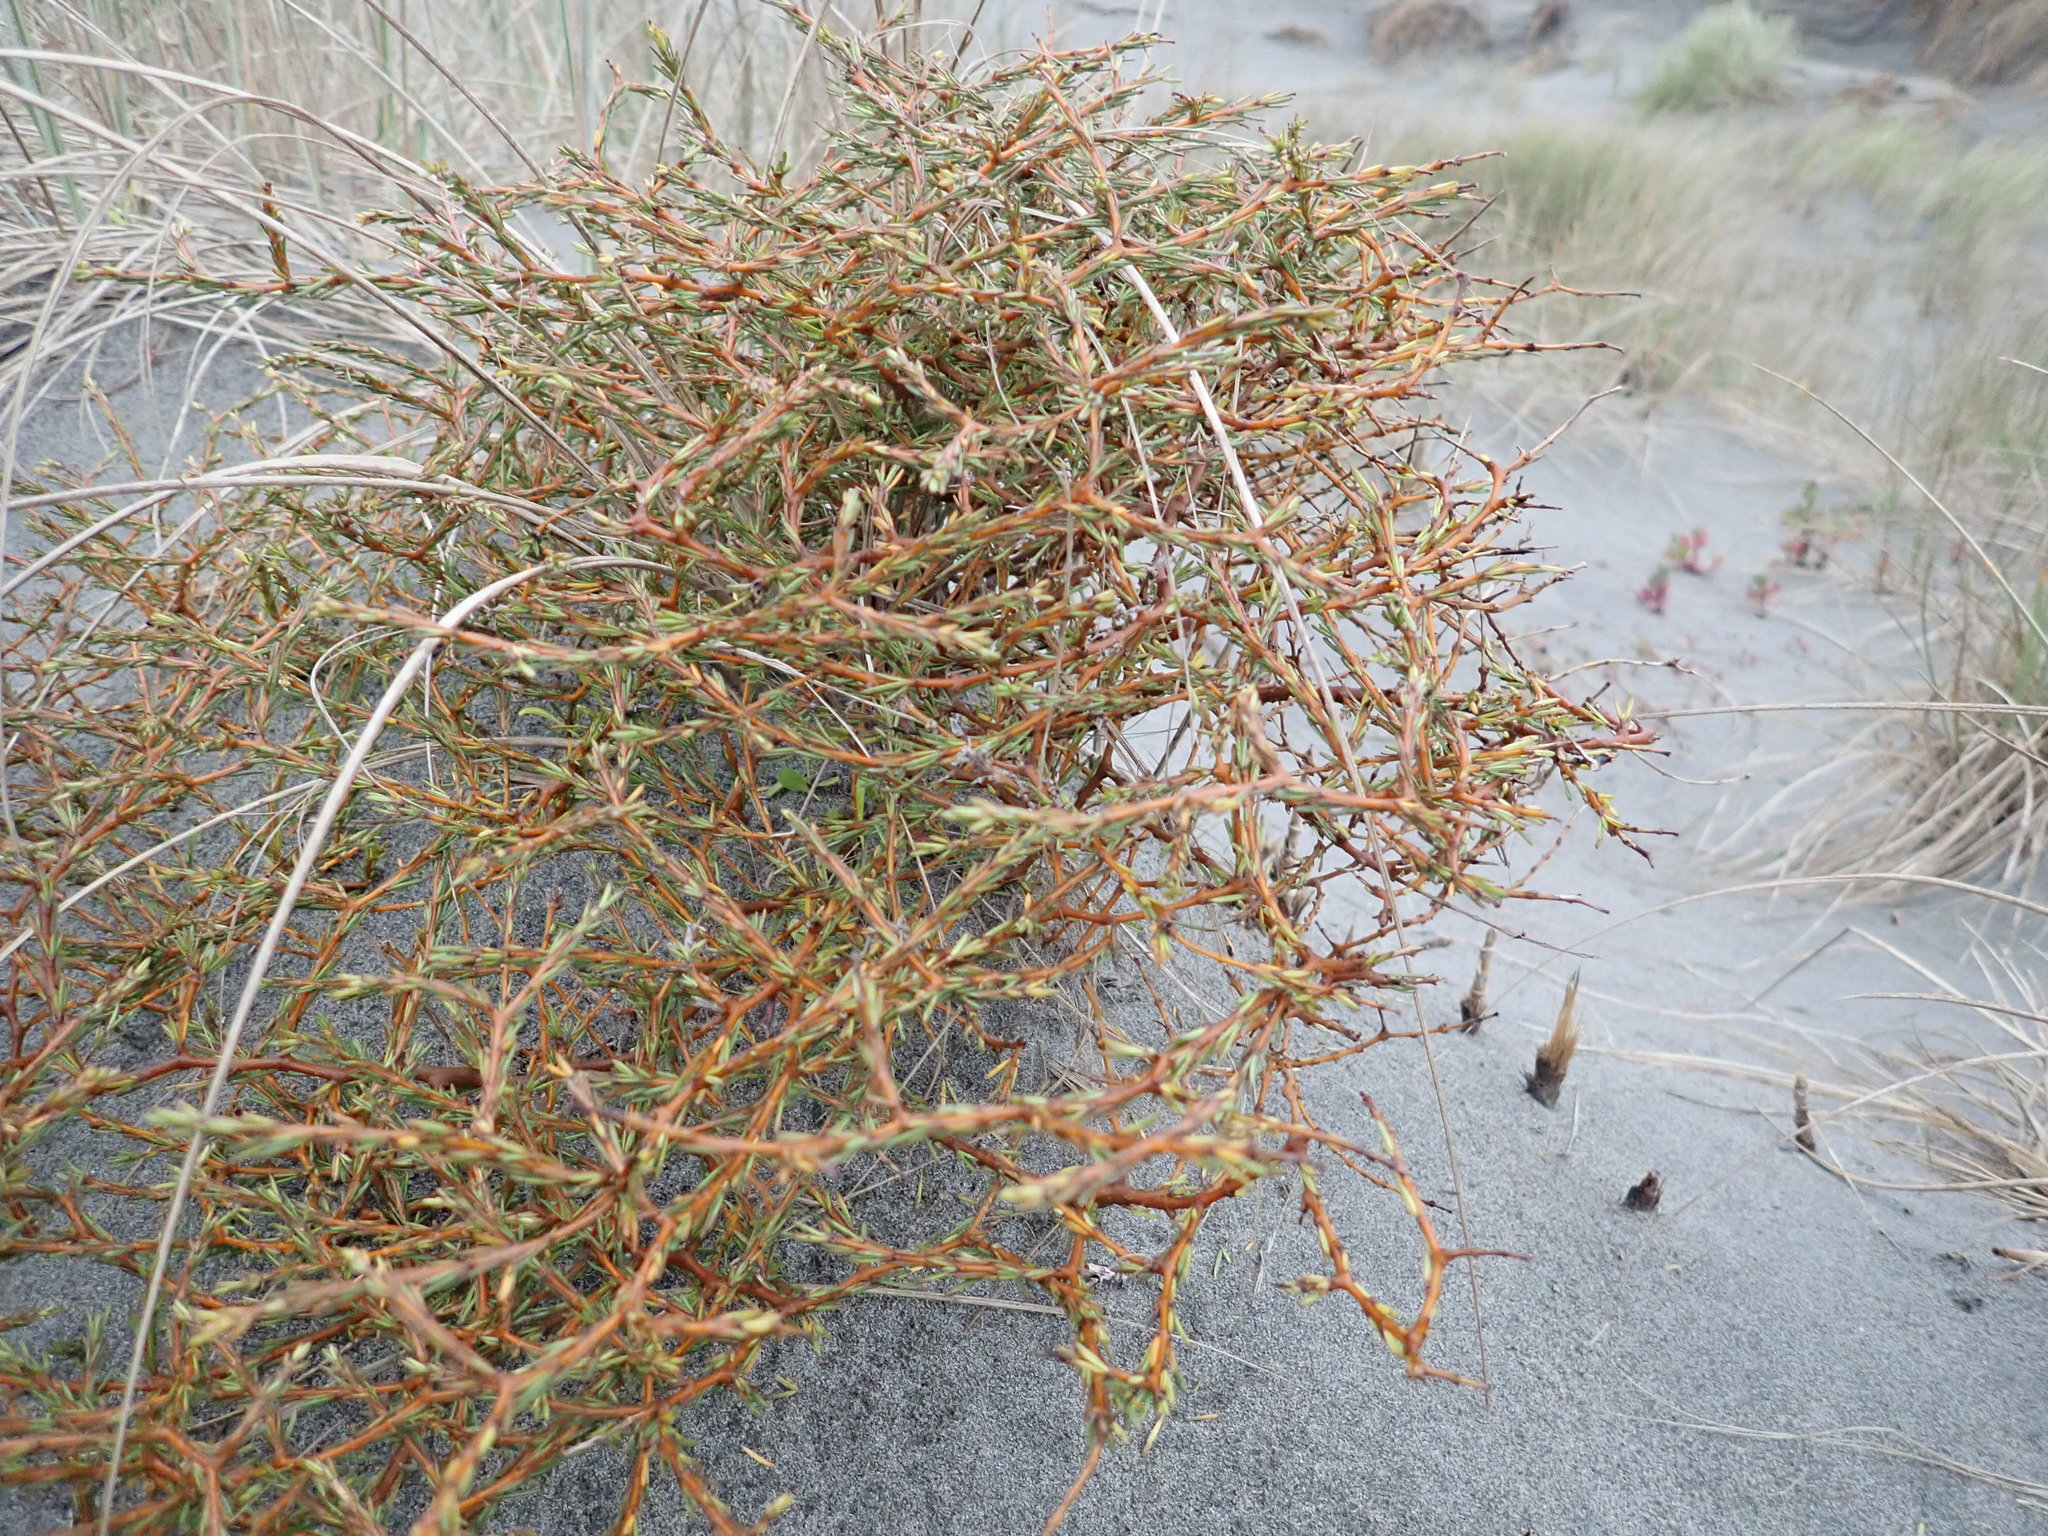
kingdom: Plantae
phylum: Tracheophyta
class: Magnoliopsida
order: Gentianales
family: Rubiaceae
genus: Coprosma
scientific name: Coprosma acerosa
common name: Sand coprosma
